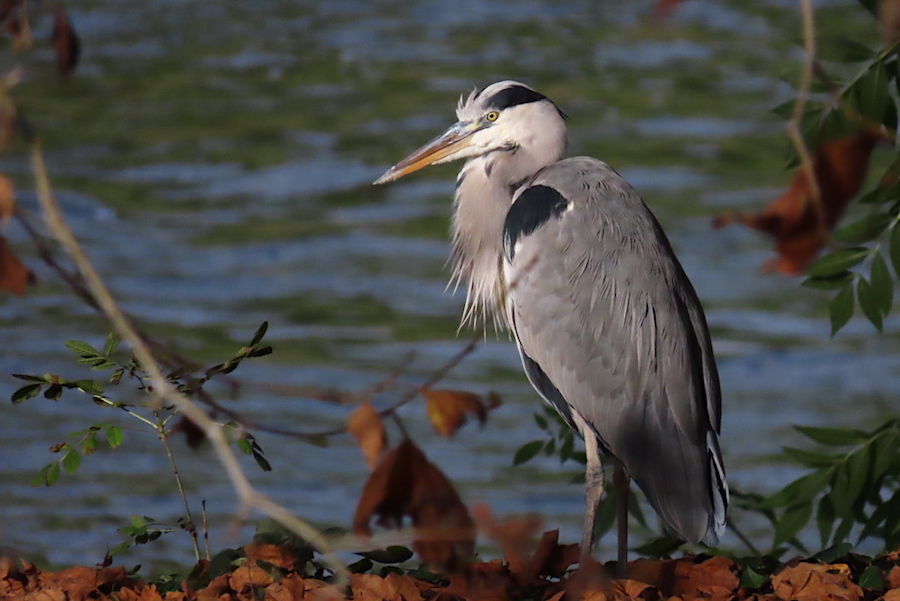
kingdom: Animalia
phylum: Chordata
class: Aves
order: Pelecaniformes
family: Ardeidae
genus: Ardea
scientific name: Ardea cinerea
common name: Grey heron
